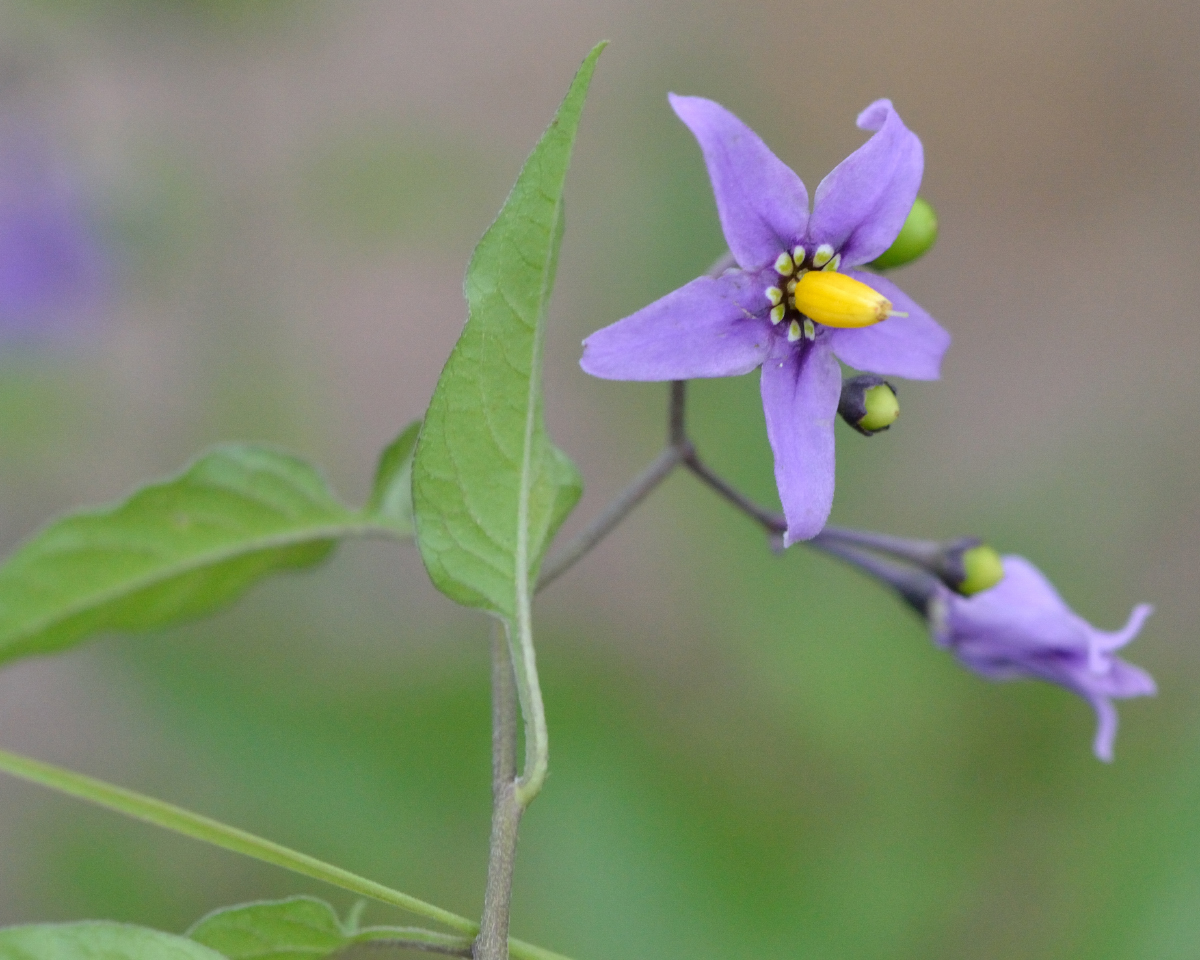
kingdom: Plantae
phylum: Tracheophyta
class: Magnoliopsida
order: Solanales
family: Solanaceae
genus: Solanum
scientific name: Solanum dulcamara
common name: Climbing nightshade
